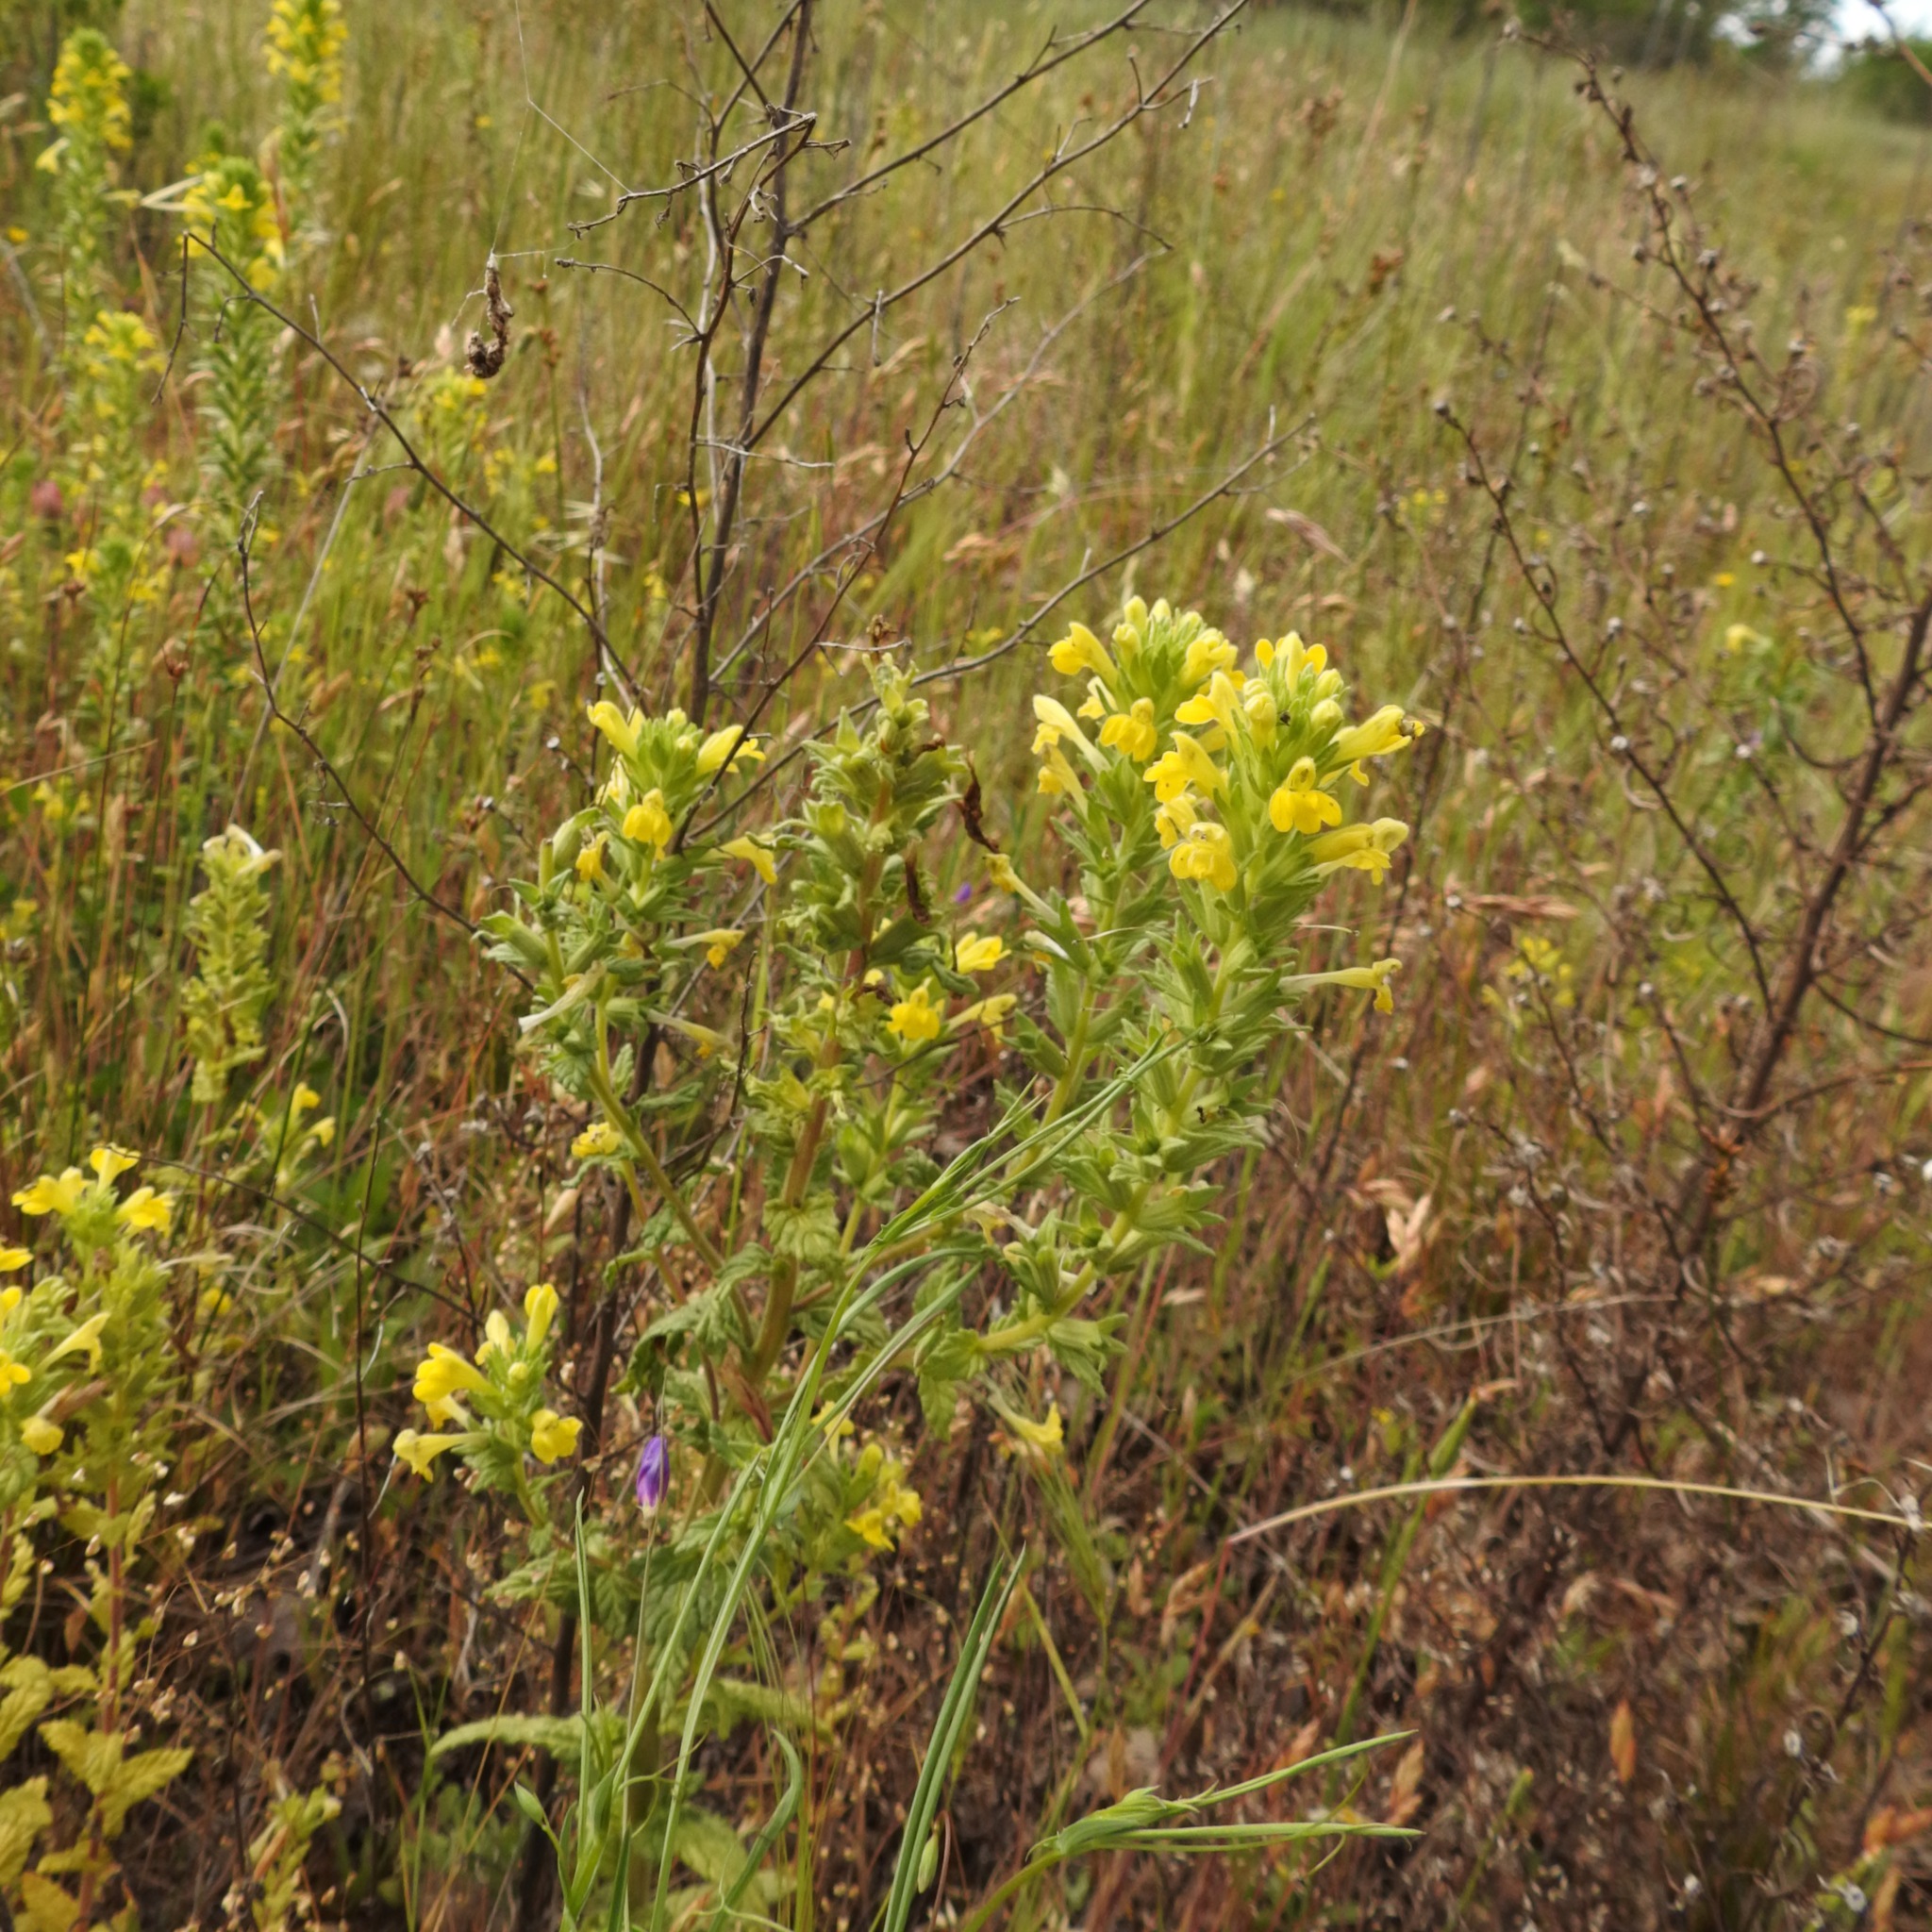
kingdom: Plantae
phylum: Tracheophyta
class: Magnoliopsida
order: Lamiales
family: Orobanchaceae
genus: Bellardia
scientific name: Bellardia viscosa
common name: Sticky parentucellia
